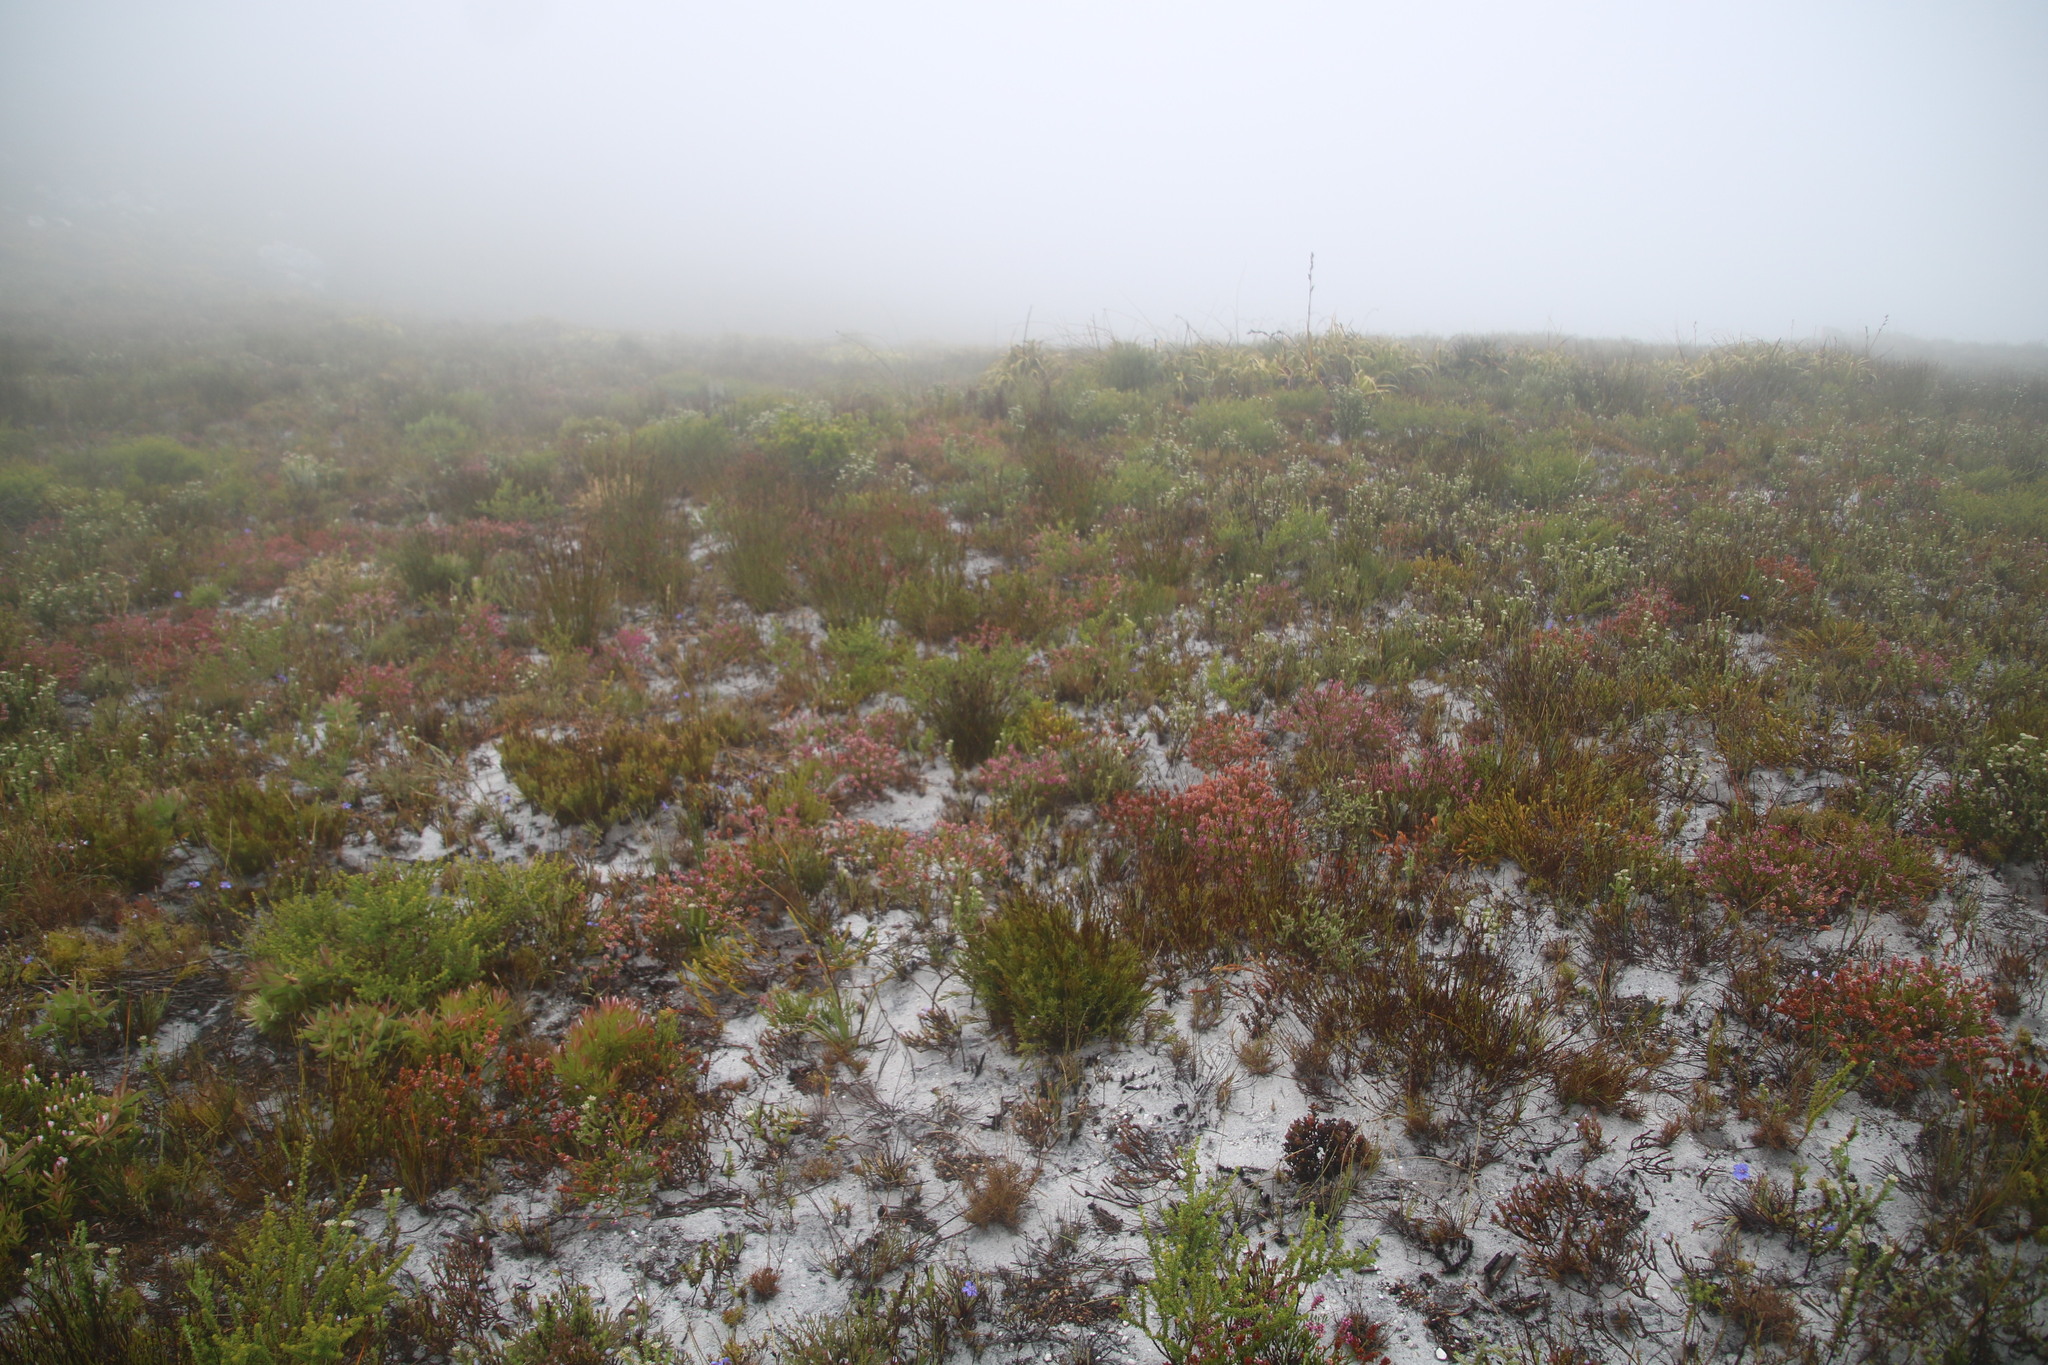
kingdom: Plantae
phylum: Tracheophyta
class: Magnoliopsida
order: Ericales
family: Ericaceae
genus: Erica
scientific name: Erica pulchella
